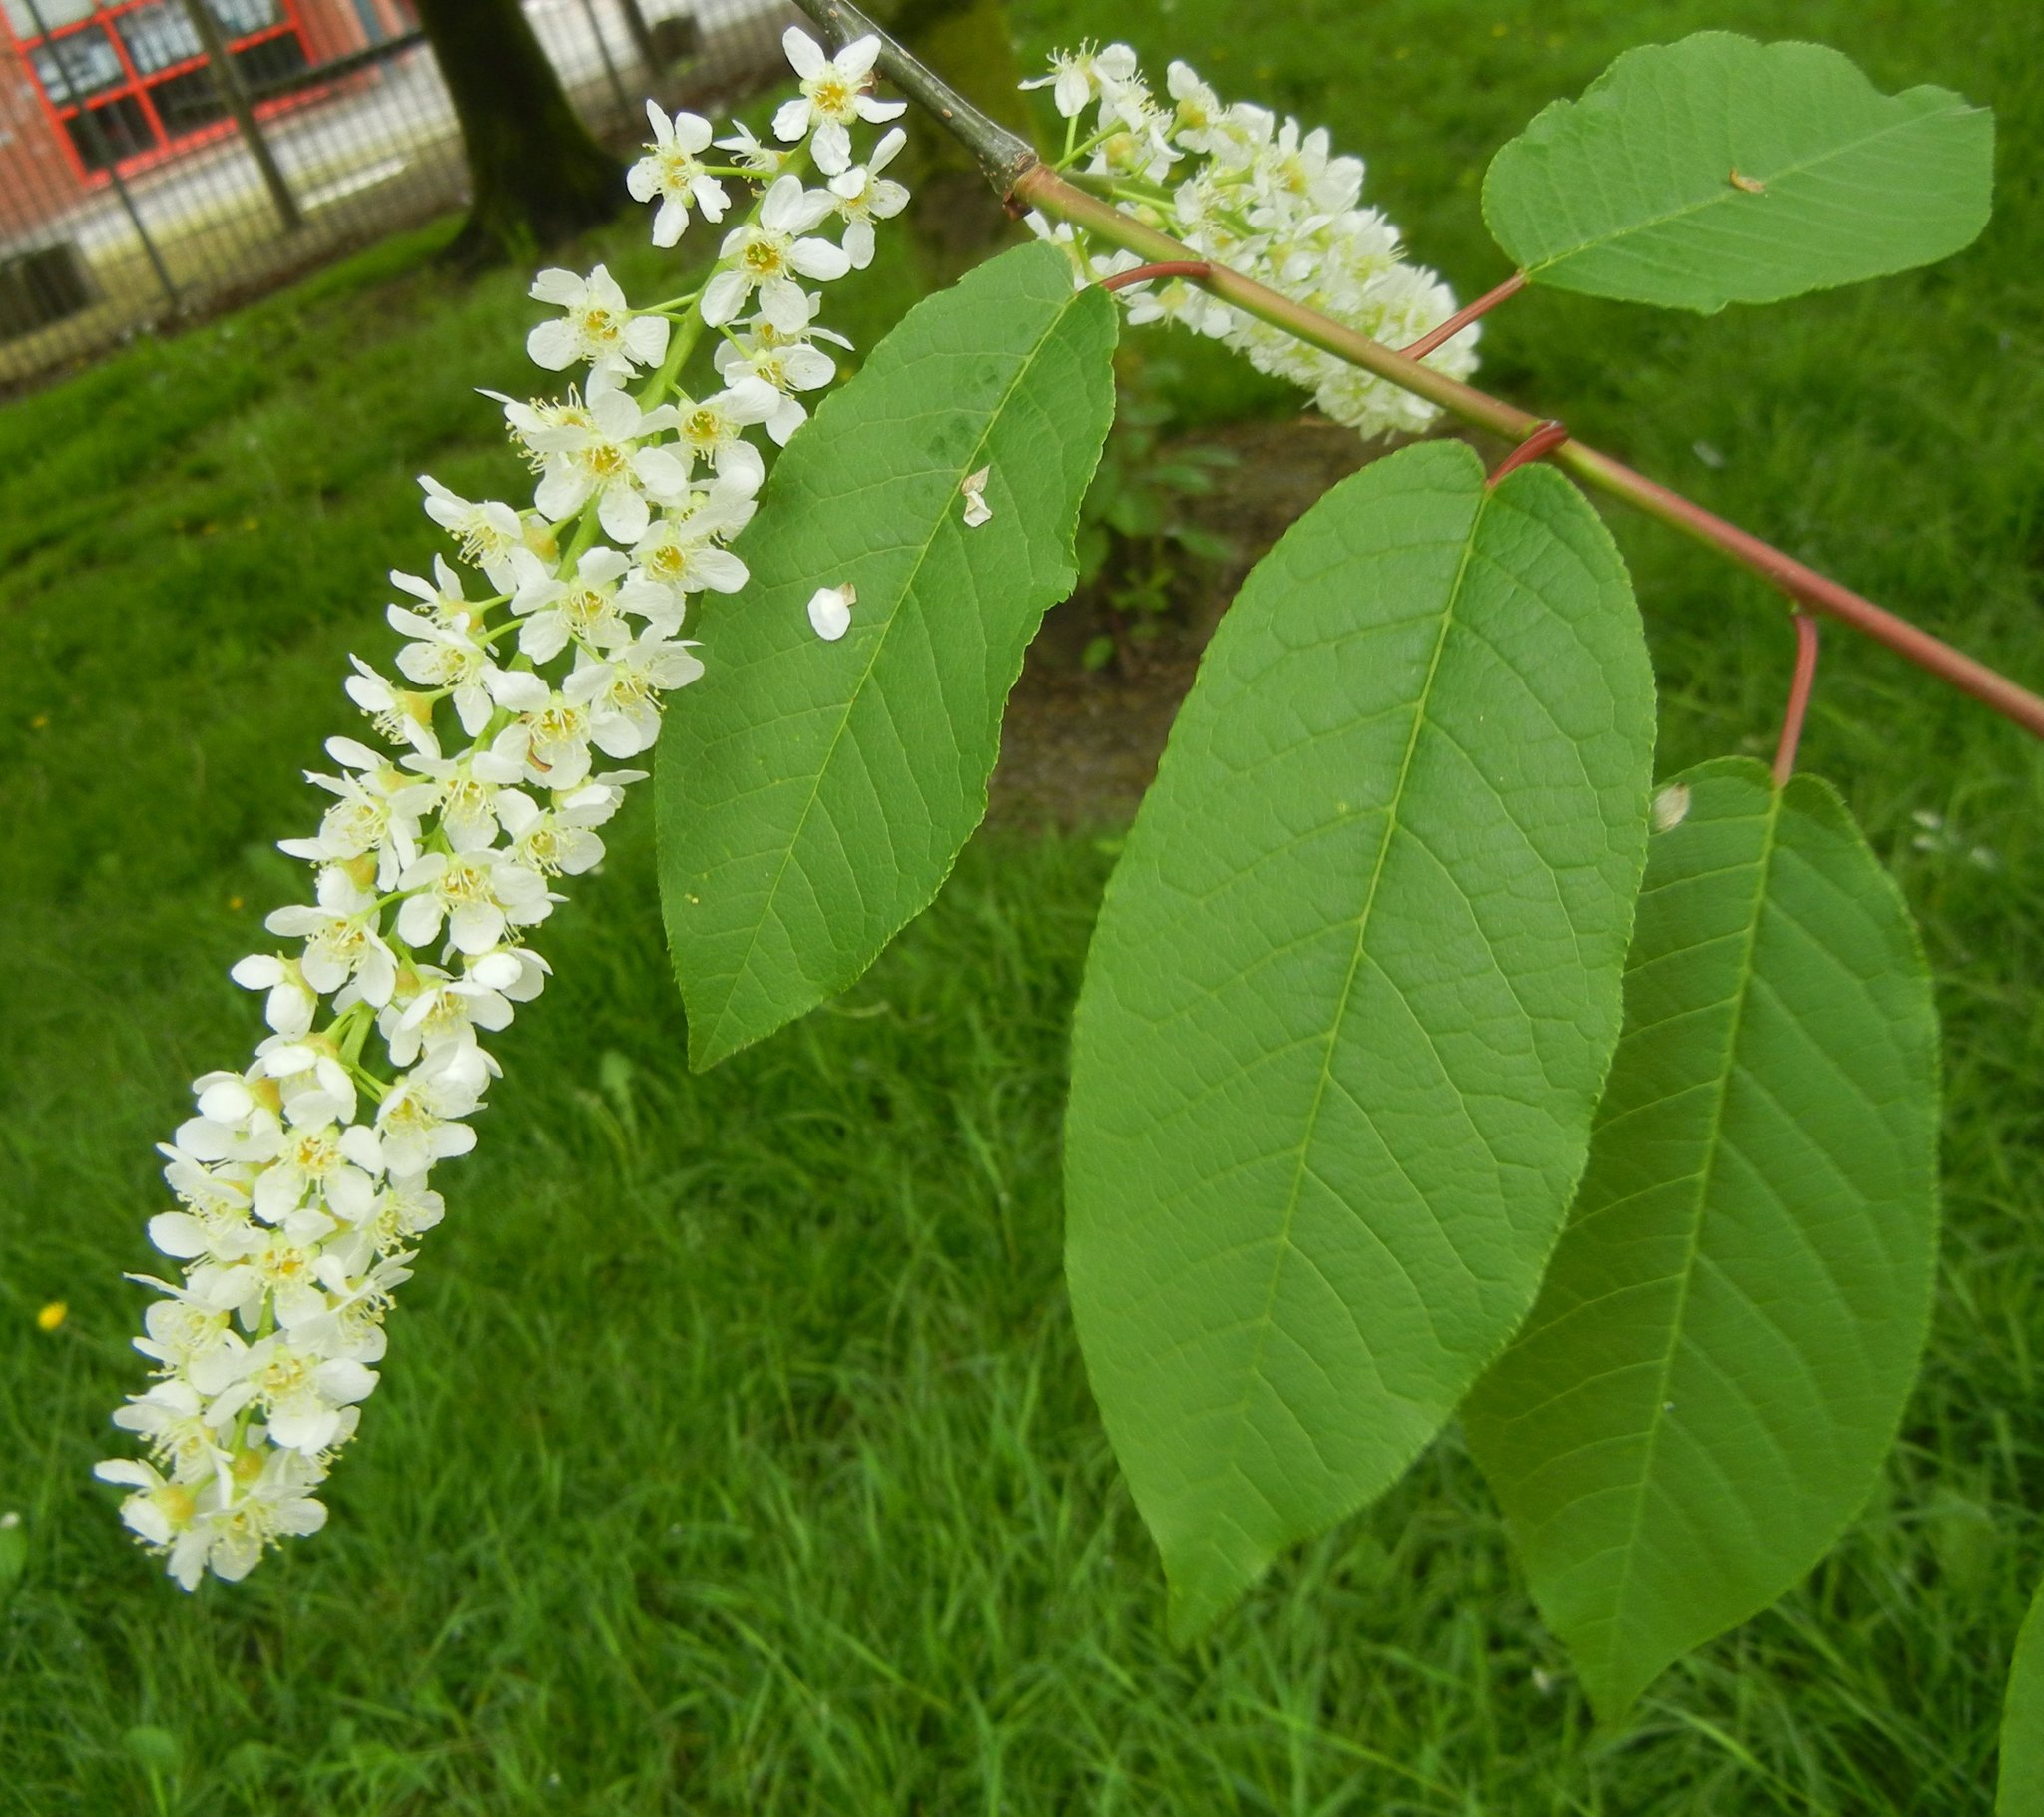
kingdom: Plantae
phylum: Tracheophyta
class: Magnoliopsida
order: Rosales
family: Rosaceae
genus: Prunus
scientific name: Prunus padus
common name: Bird cherry
